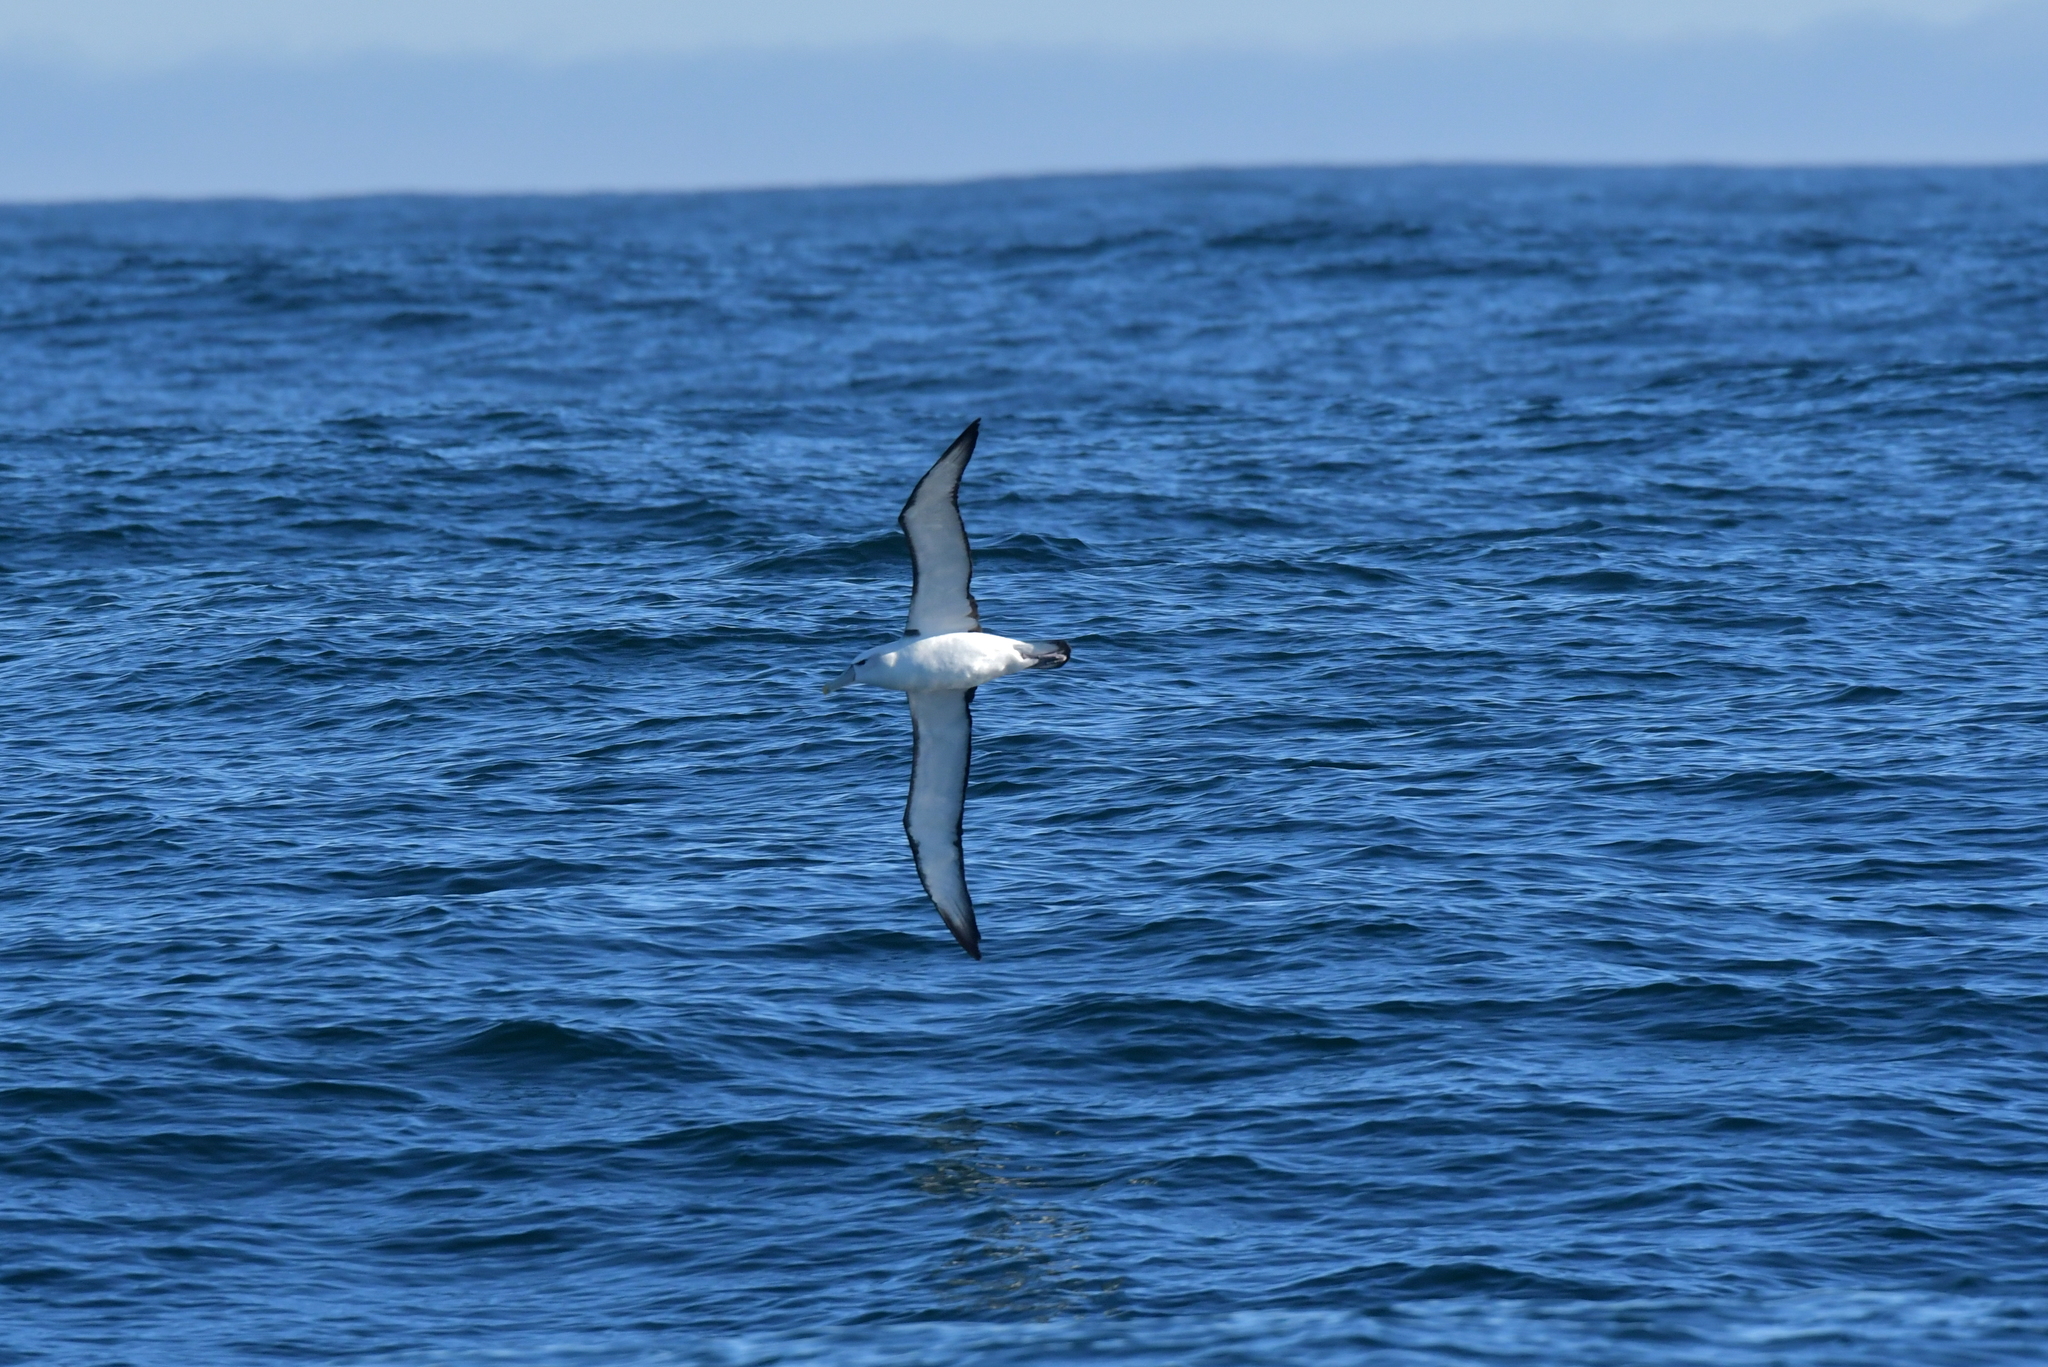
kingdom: Animalia
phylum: Chordata
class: Aves
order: Procellariiformes
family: Diomedeidae
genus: Thalassarche
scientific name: Thalassarche cauta
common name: Shy albatross
